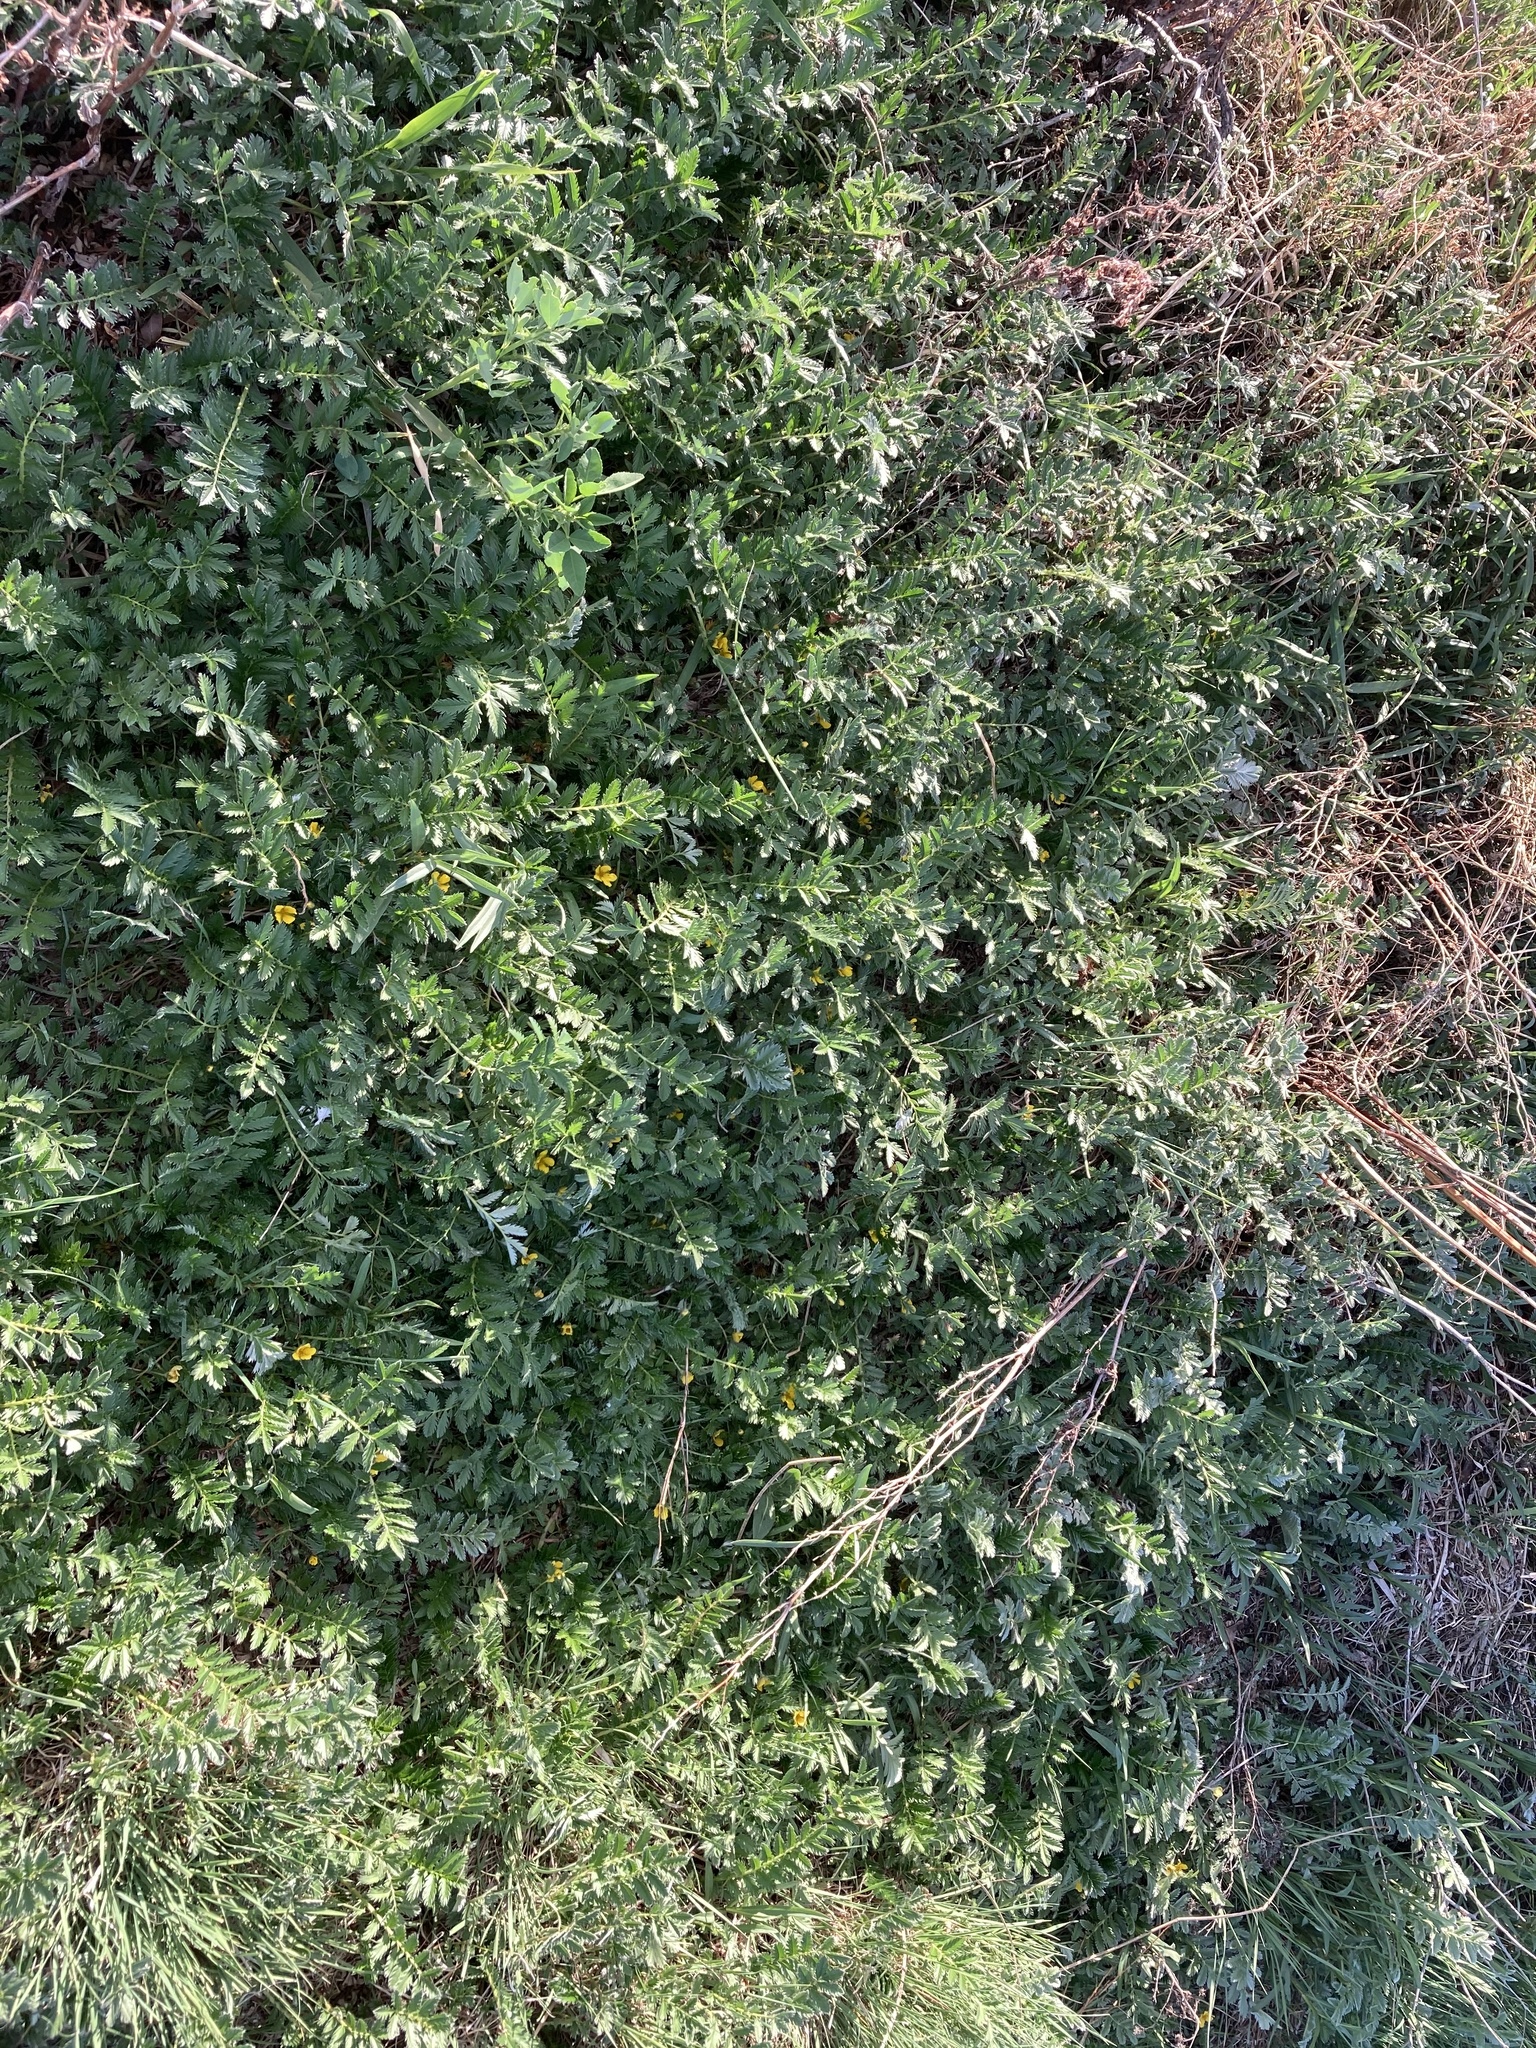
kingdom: Plantae
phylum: Tracheophyta
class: Magnoliopsida
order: Rosales
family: Rosaceae
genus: Argentina
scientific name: Argentina anserina
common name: Common silverweed
